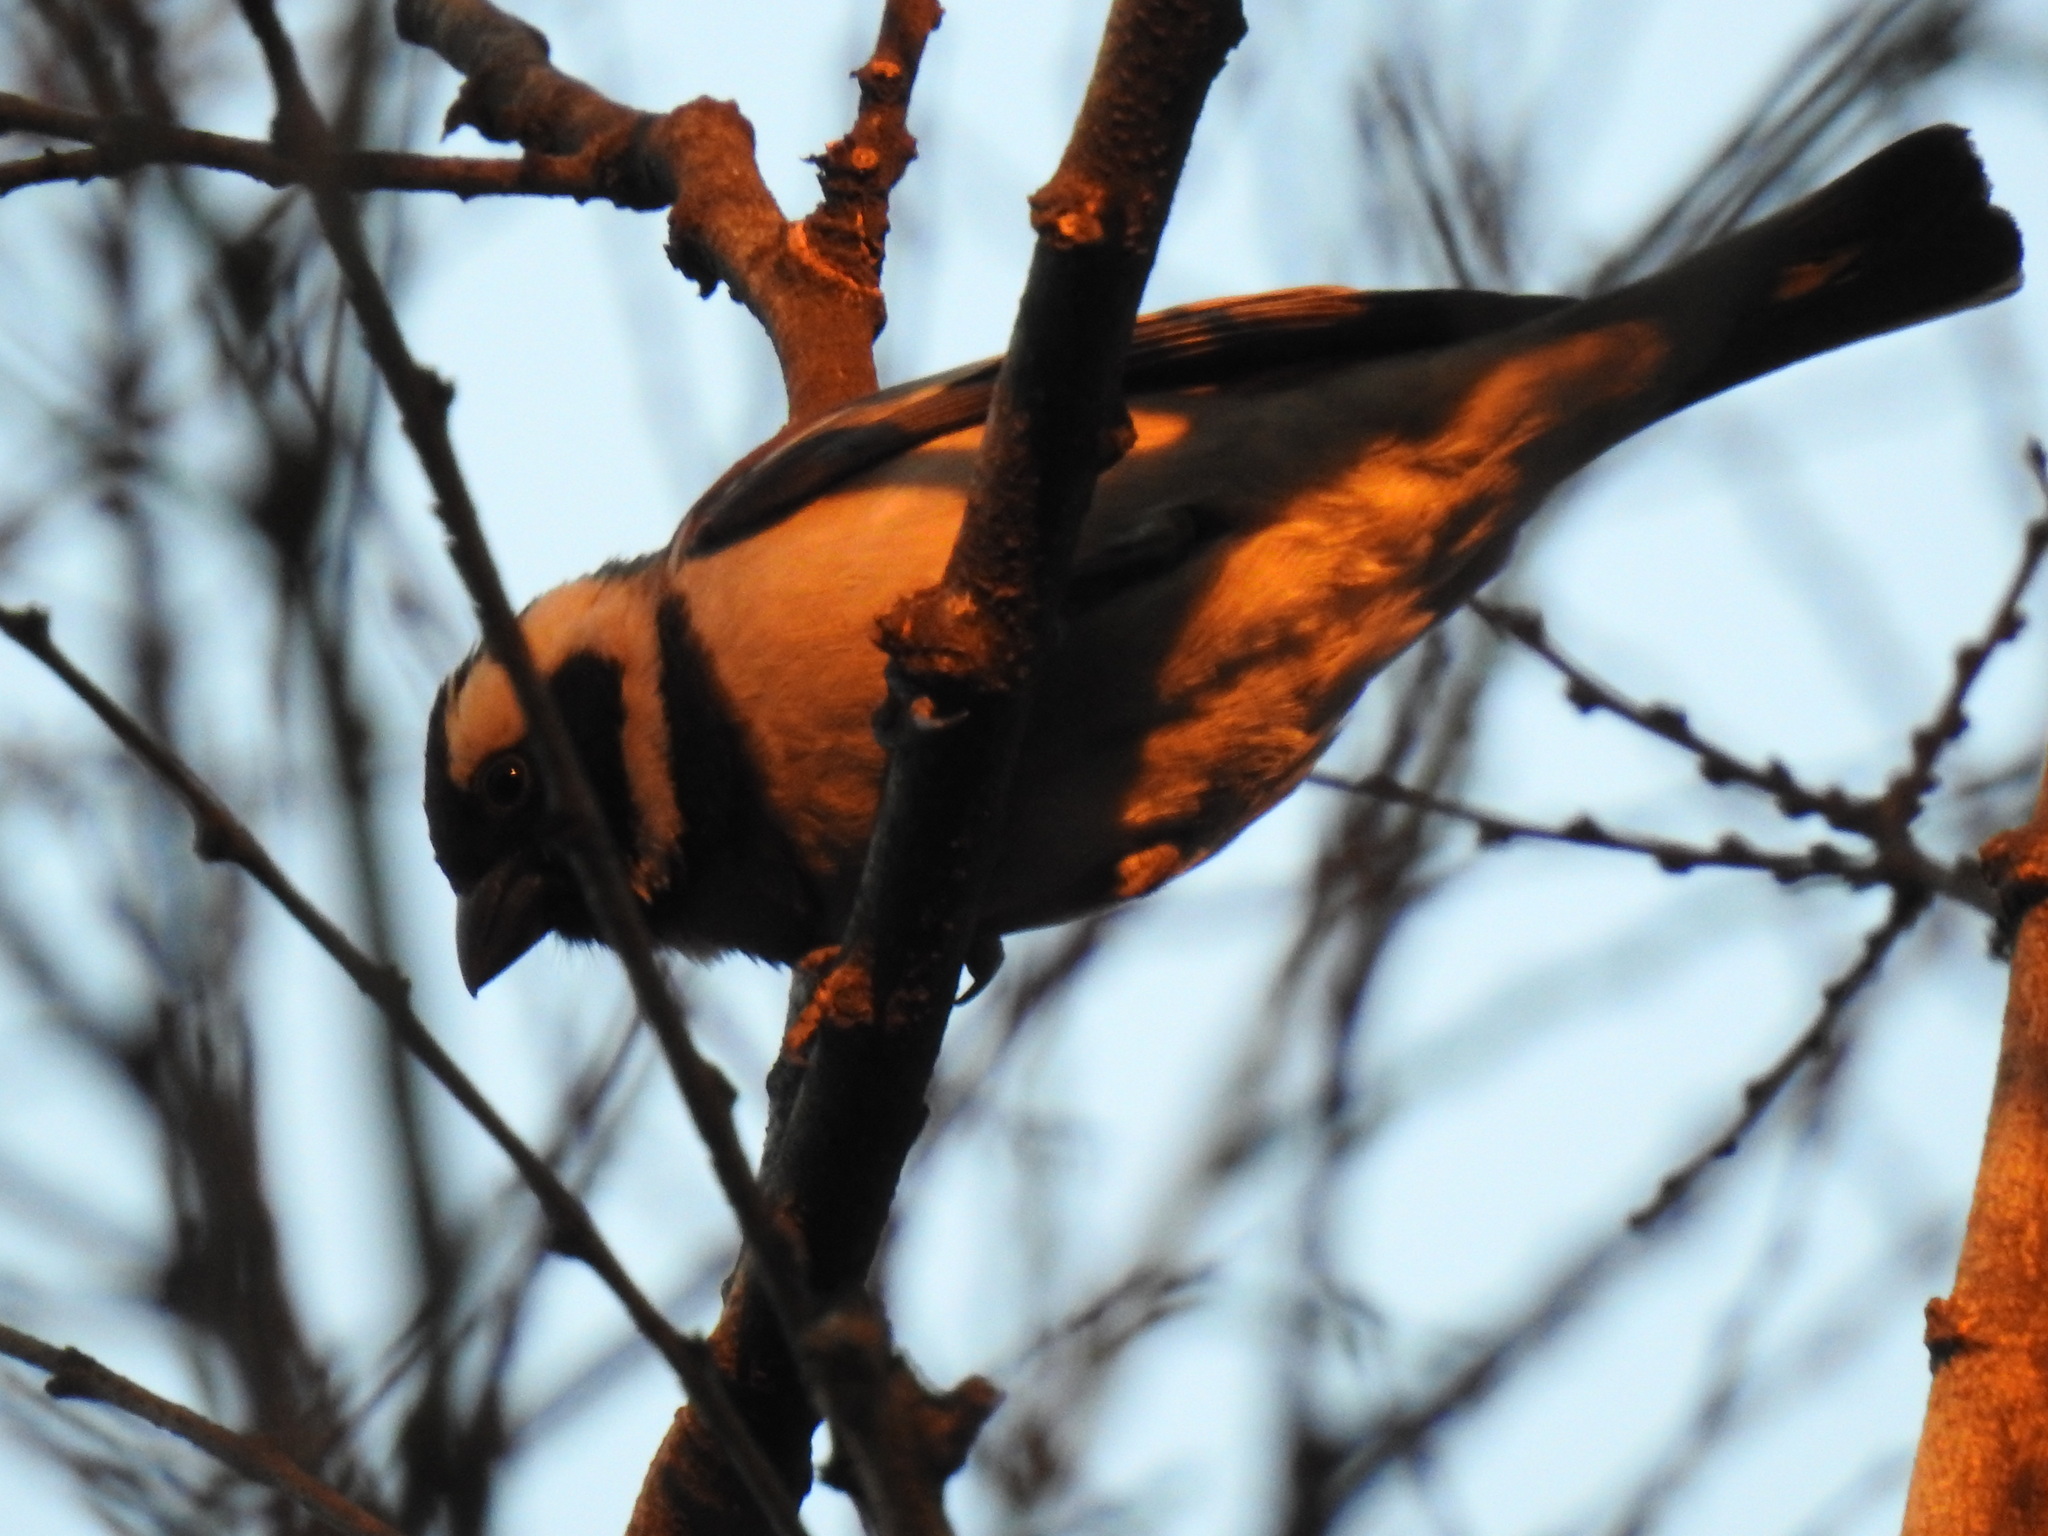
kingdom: Animalia
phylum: Chordata
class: Aves
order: Passeriformes
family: Passeridae
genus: Passer
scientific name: Passer melanurus
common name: Cape sparrow
